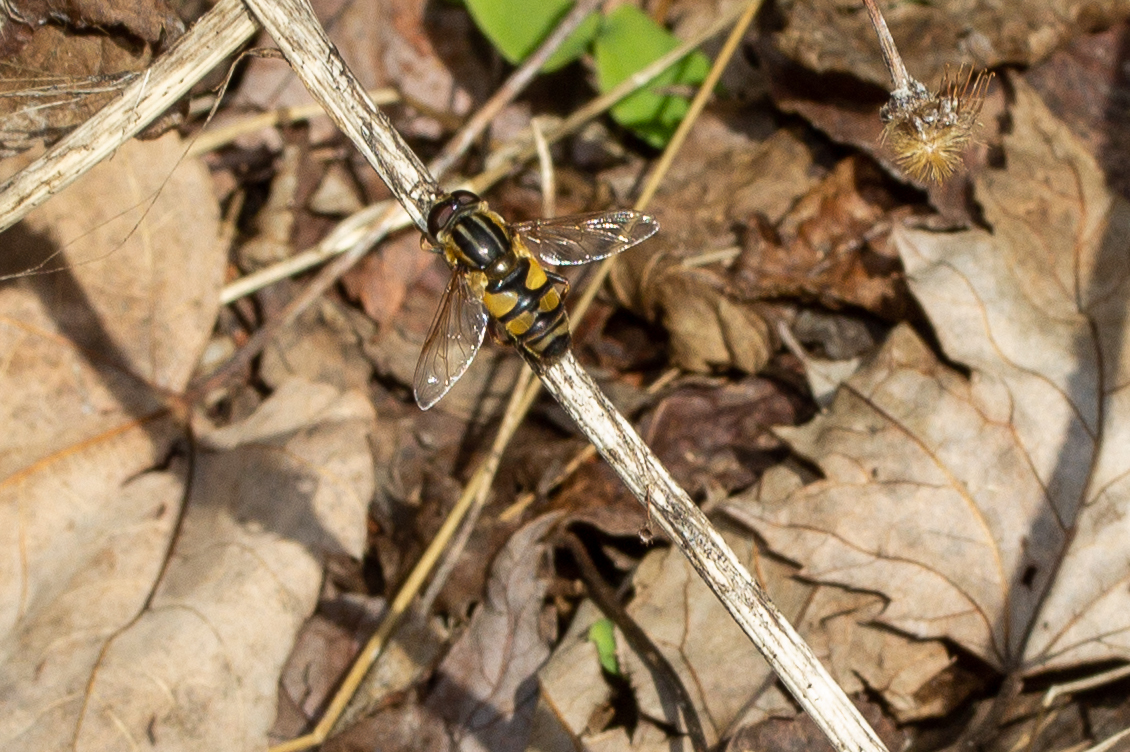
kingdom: Animalia
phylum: Arthropoda
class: Insecta
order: Diptera
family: Syrphidae
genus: Helophilus
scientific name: Helophilus fasciatus
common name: Narrow-headed marsh fly
